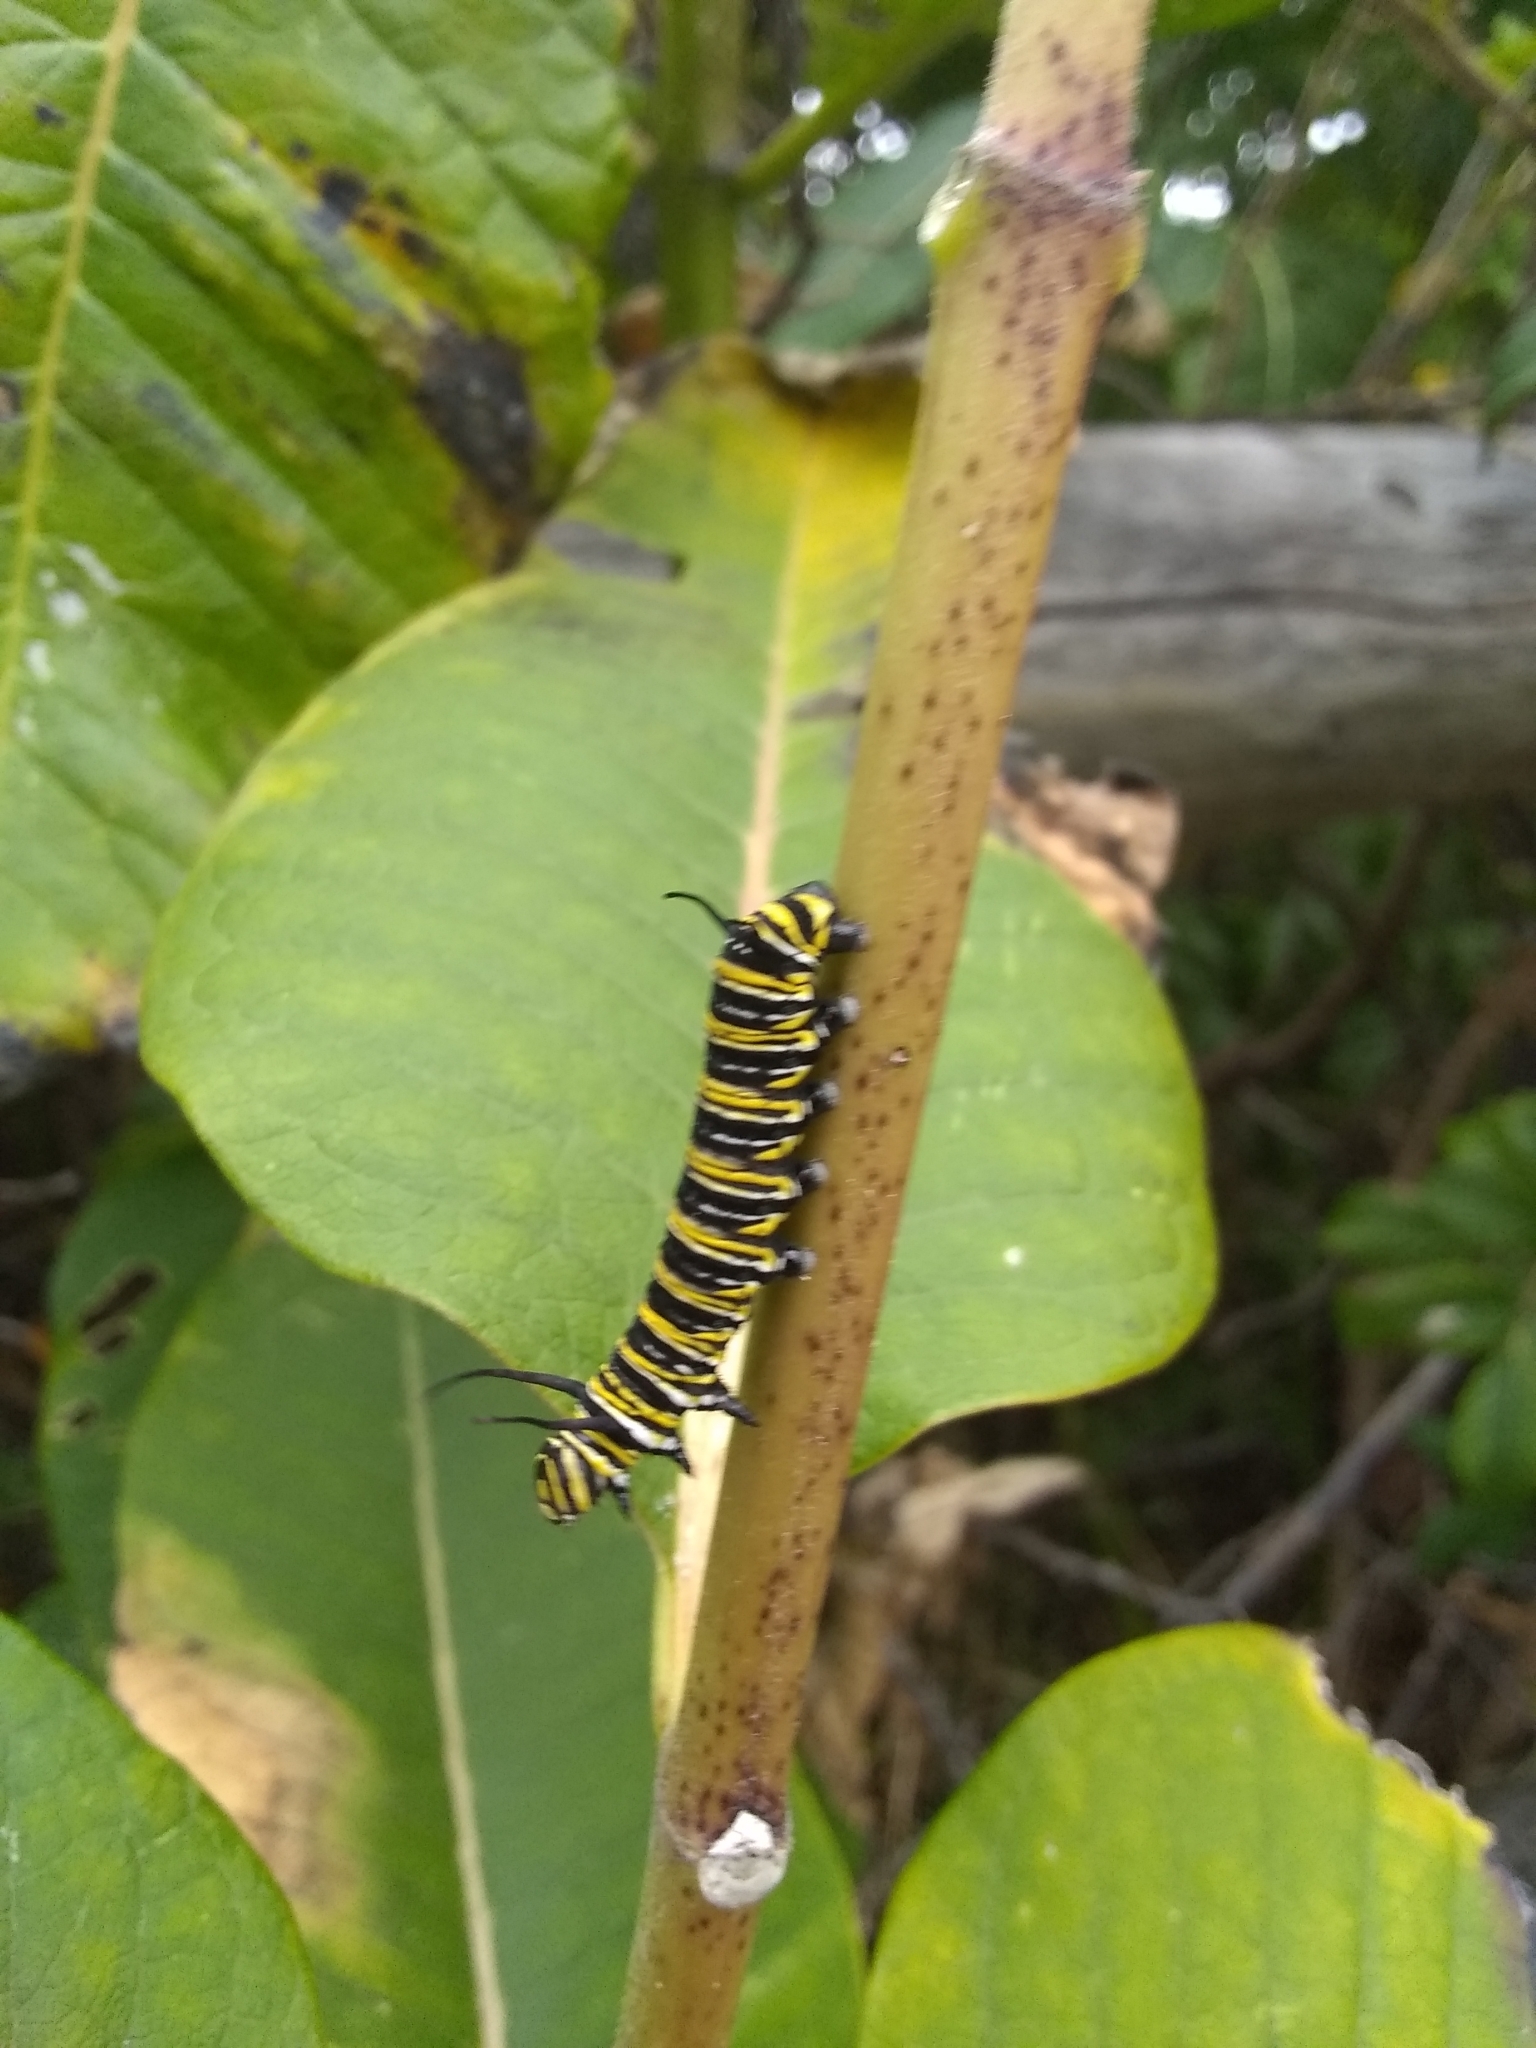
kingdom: Animalia
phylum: Arthropoda
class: Insecta
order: Lepidoptera
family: Nymphalidae
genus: Danaus
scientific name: Danaus plexippus
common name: Monarch
